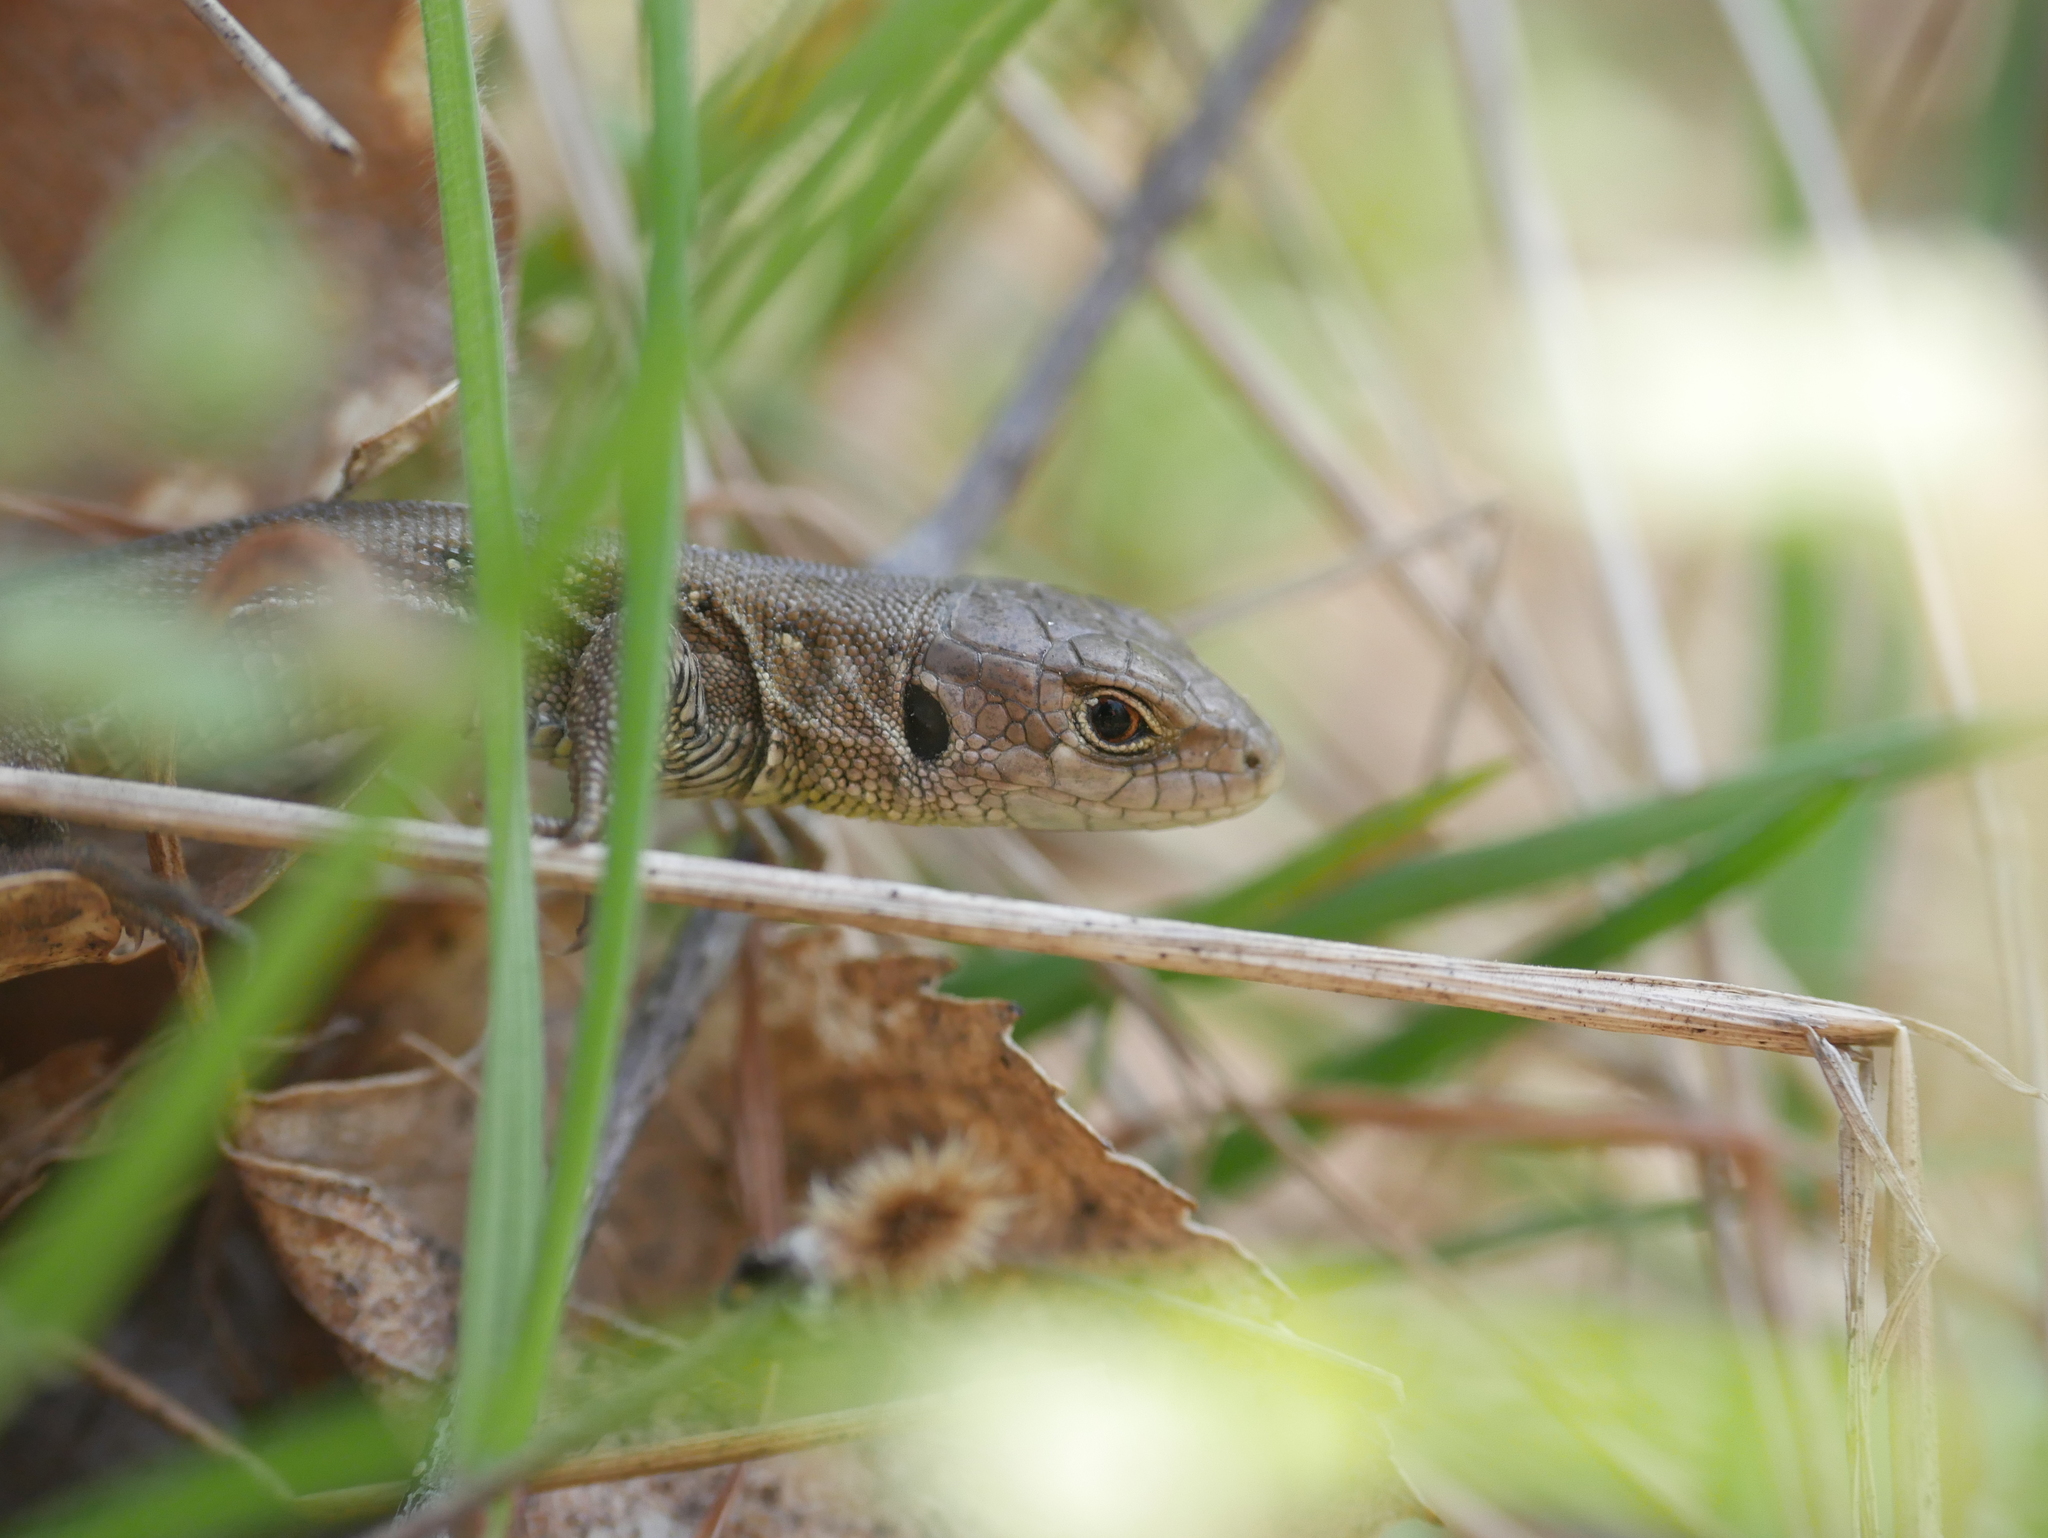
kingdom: Animalia
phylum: Chordata
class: Squamata
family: Lacertidae
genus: Lacerta
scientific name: Lacerta agilis
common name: Sand lizard
